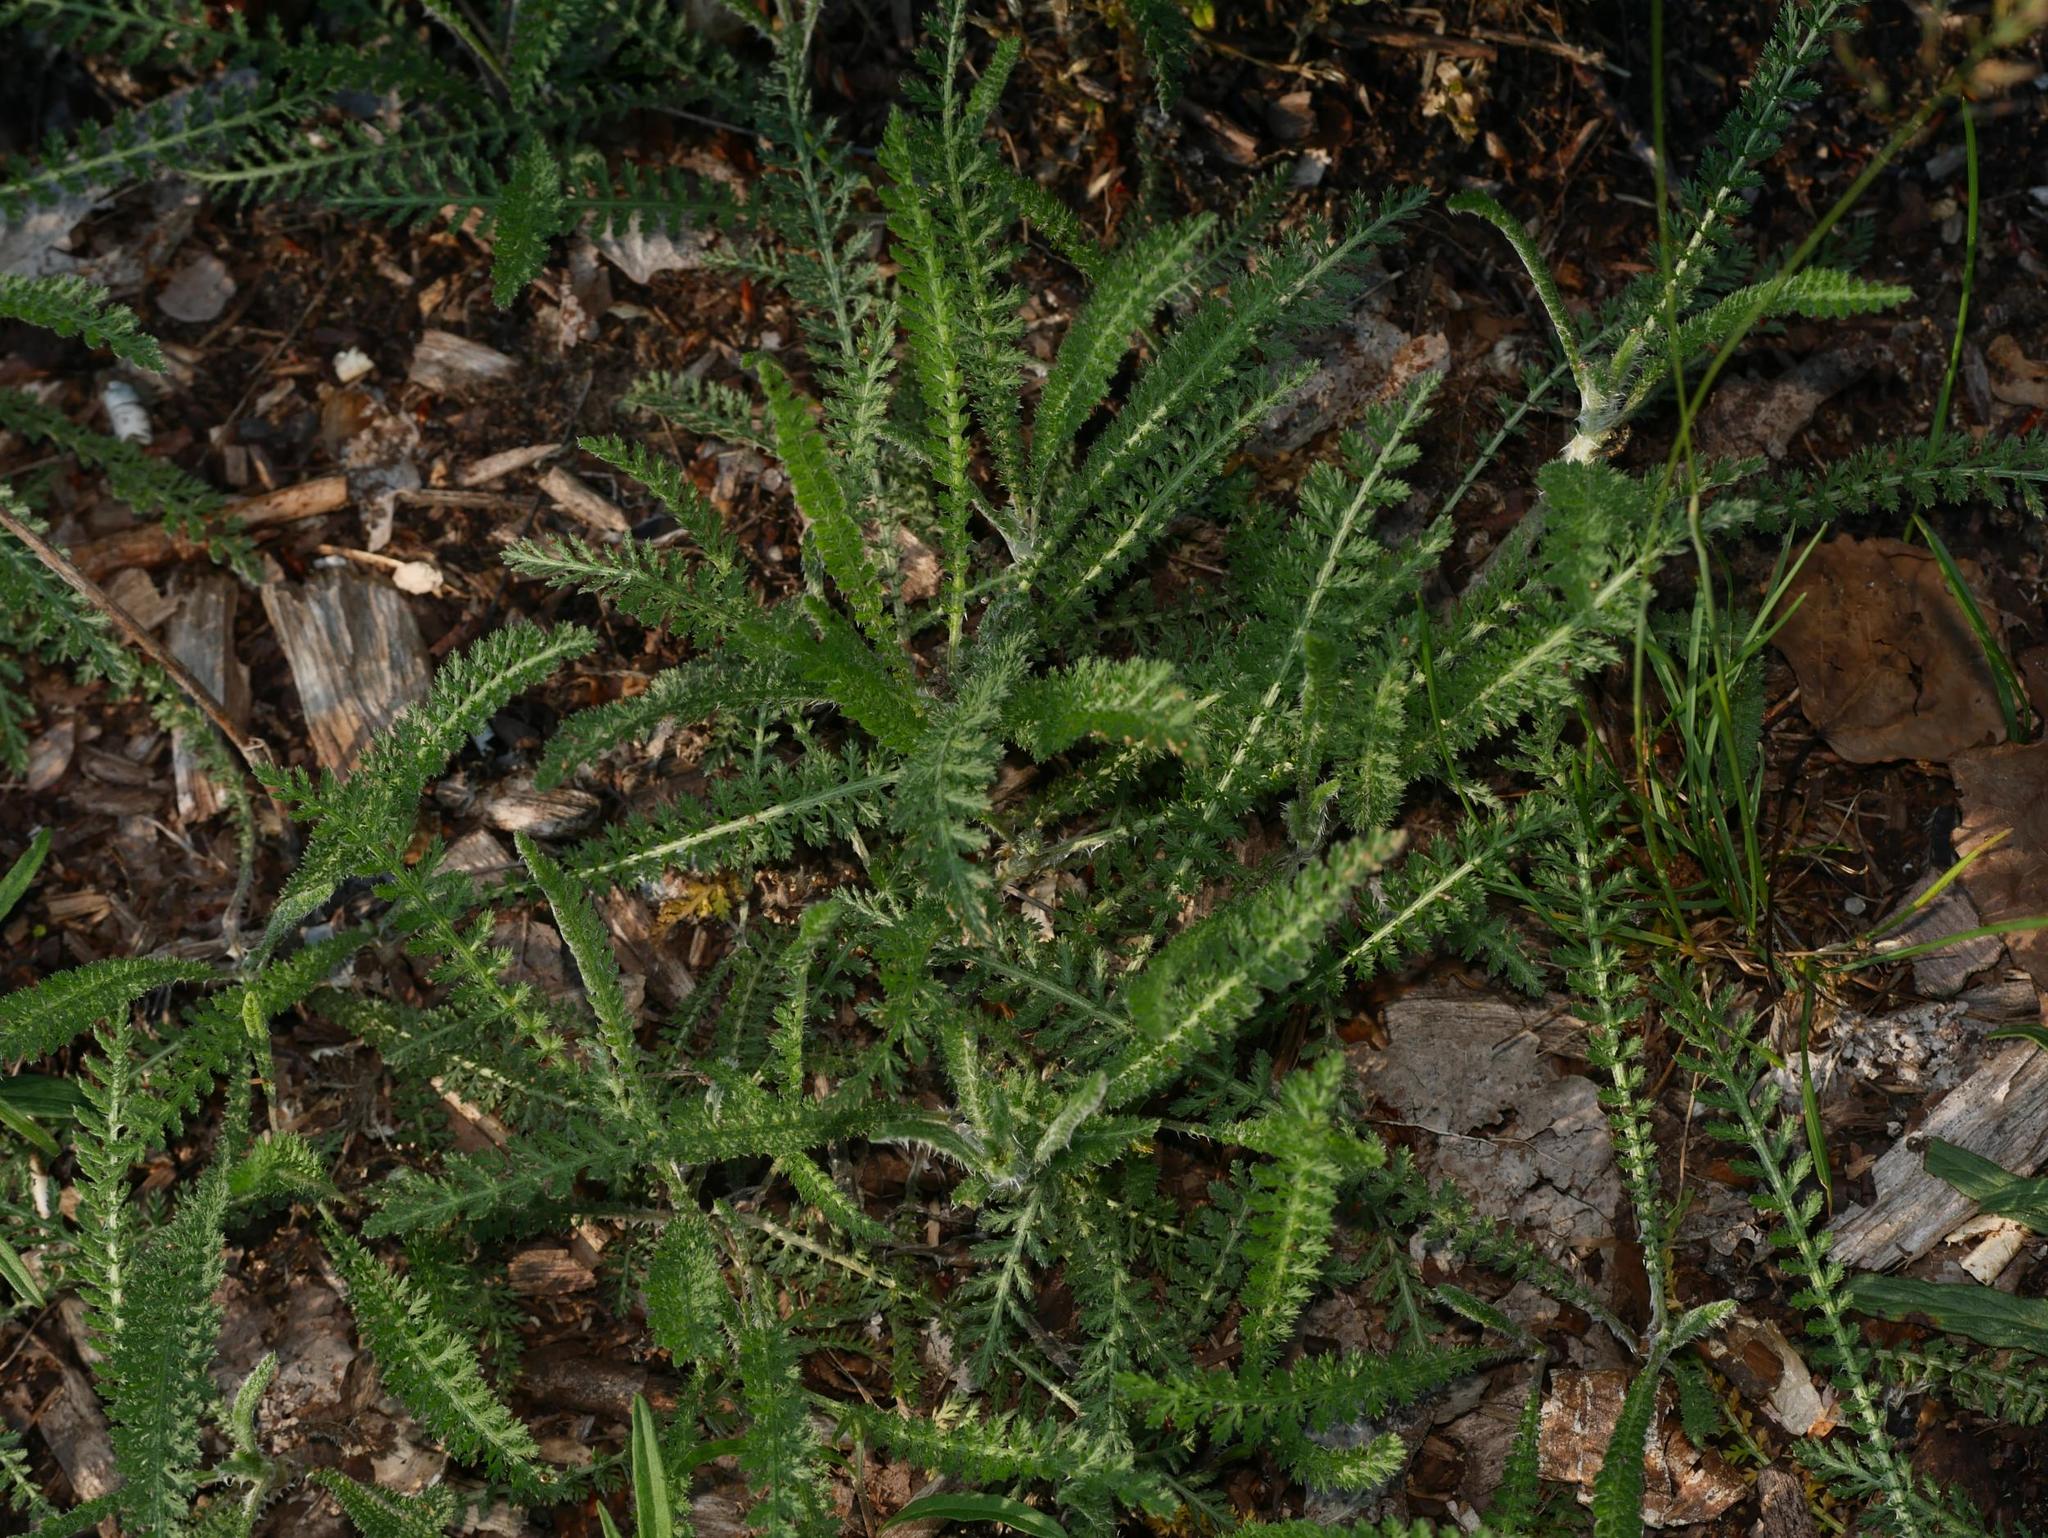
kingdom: Plantae
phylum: Tracheophyta
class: Magnoliopsida
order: Asterales
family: Asteraceae
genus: Achillea
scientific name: Achillea millefolium
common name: Yarrow
